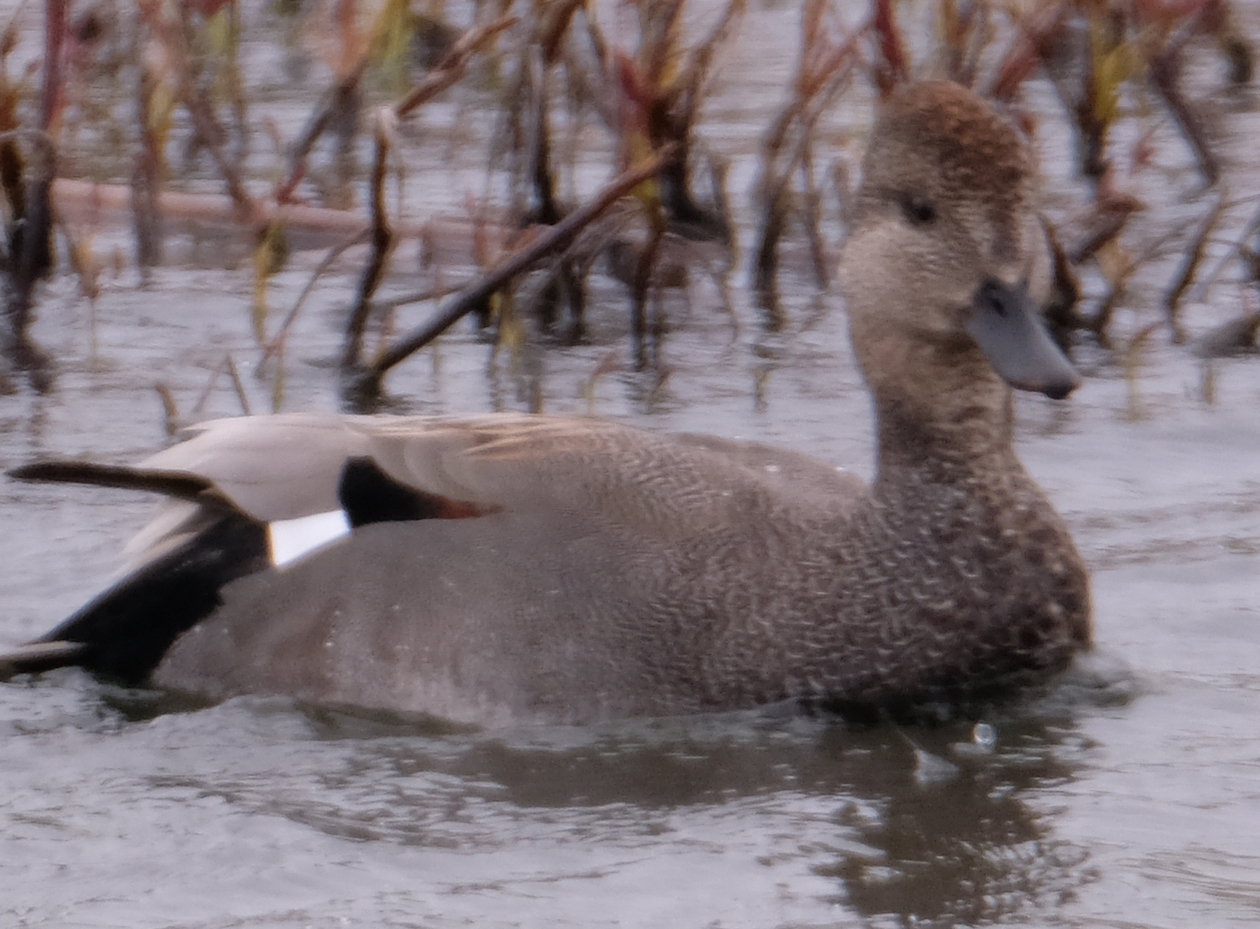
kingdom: Animalia
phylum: Chordata
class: Aves
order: Anseriformes
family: Anatidae
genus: Mareca
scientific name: Mareca strepera
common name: Gadwall
